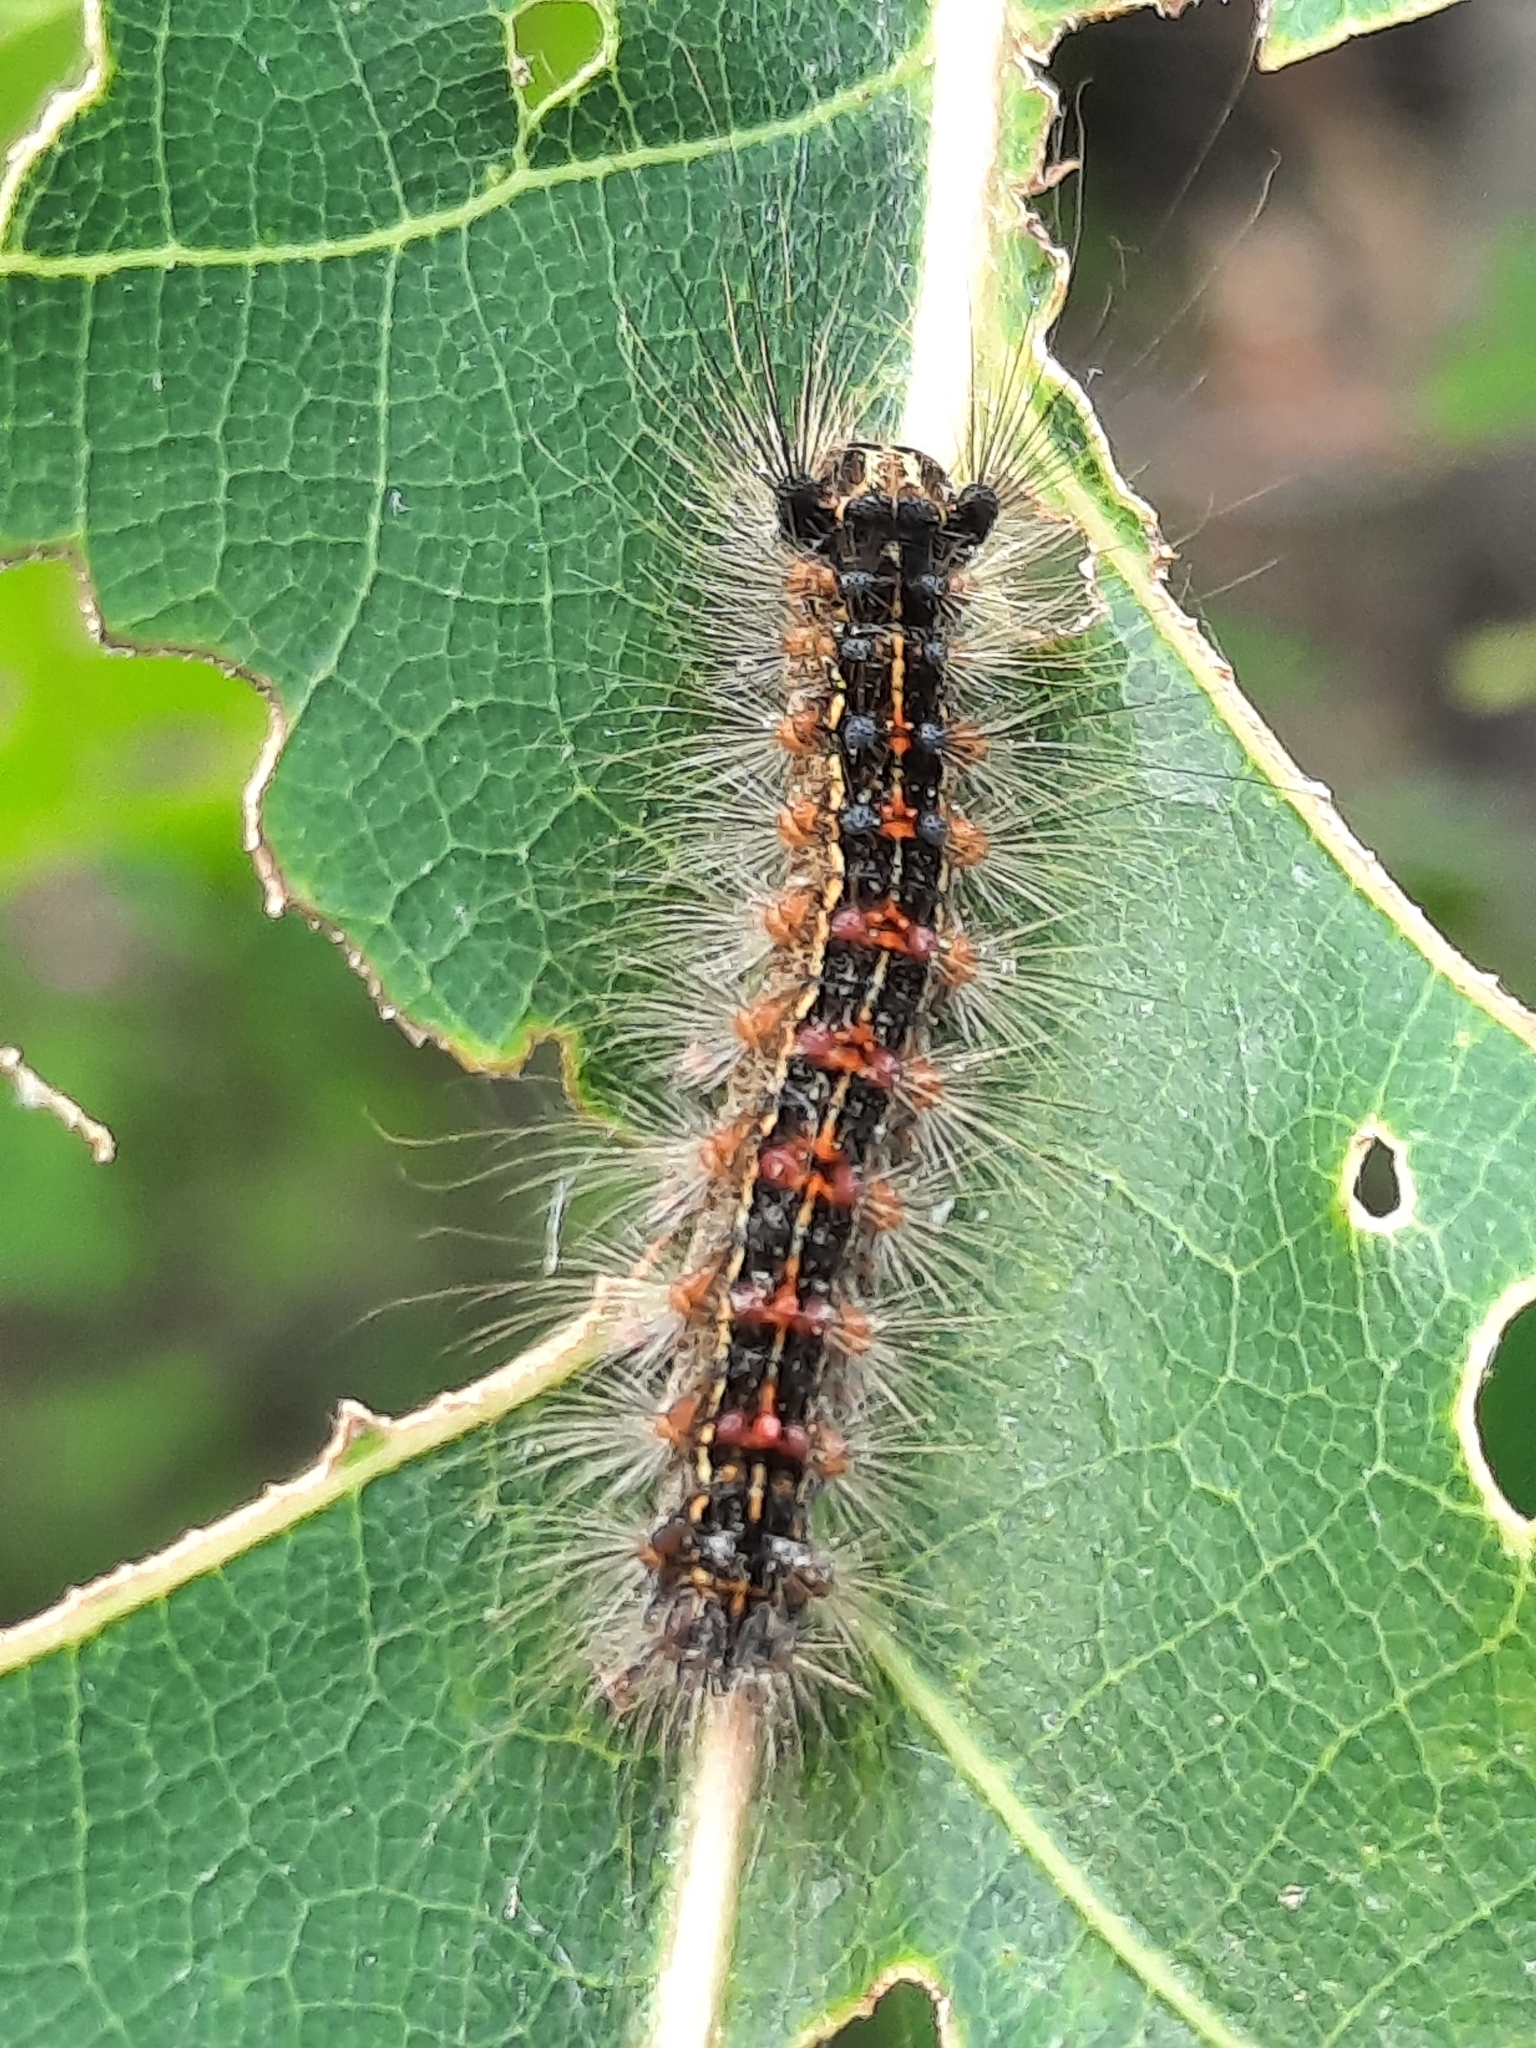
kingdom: Animalia
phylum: Arthropoda
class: Insecta
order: Lepidoptera
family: Erebidae
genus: Lymantria
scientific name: Lymantria dispar
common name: Gypsy moth
